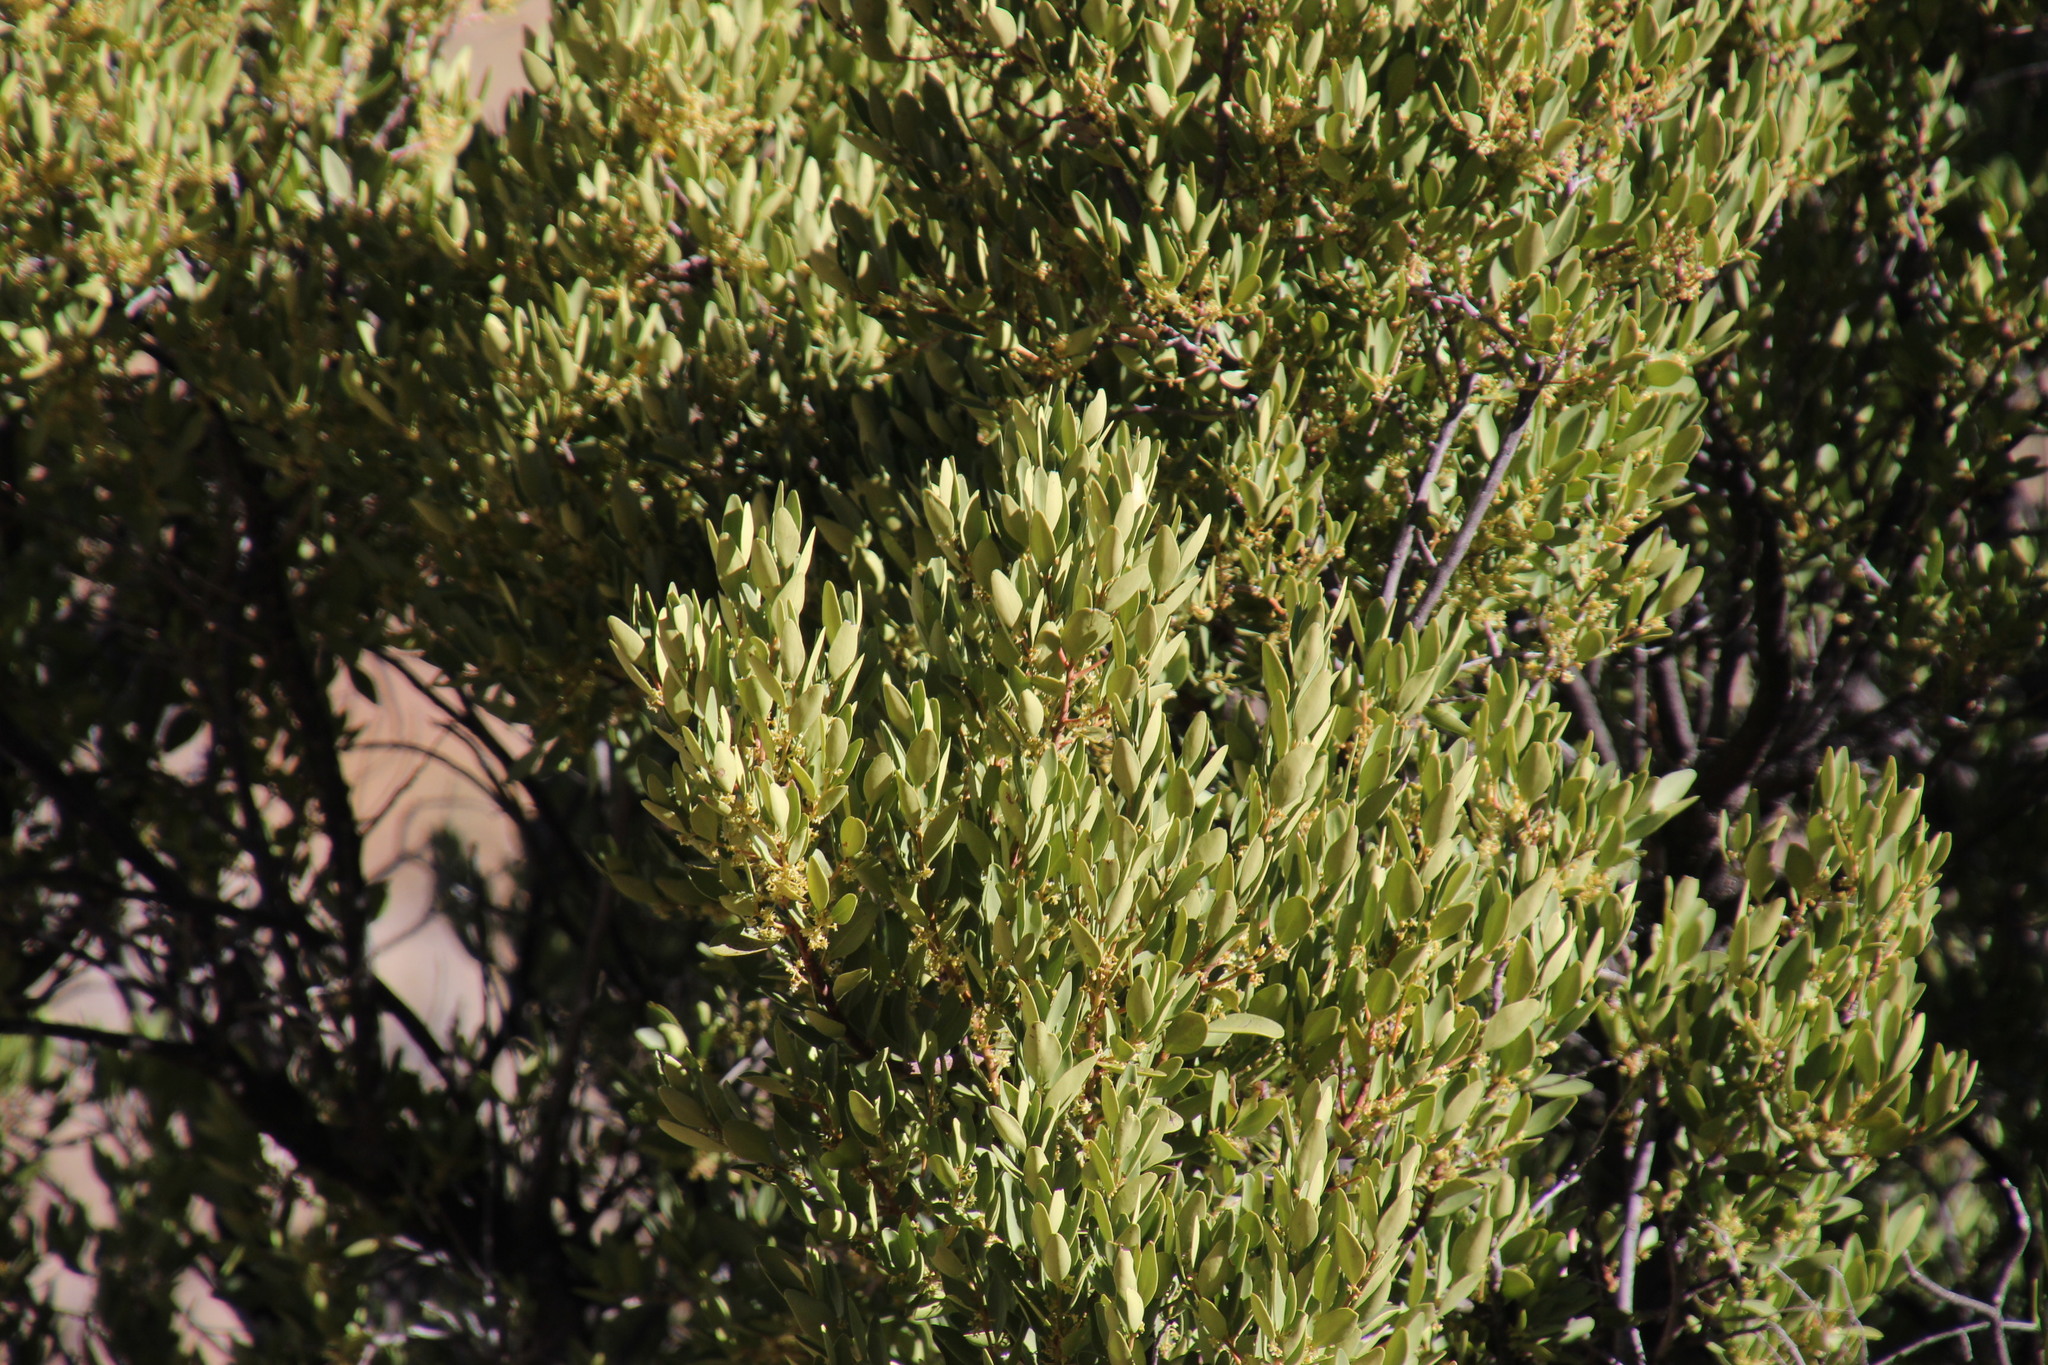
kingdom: Plantae
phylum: Tracheophyta
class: Magnoliopsida
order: Celastrales
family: Celastraceae
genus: Gymnosporia
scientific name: Gymnosporia laurina
